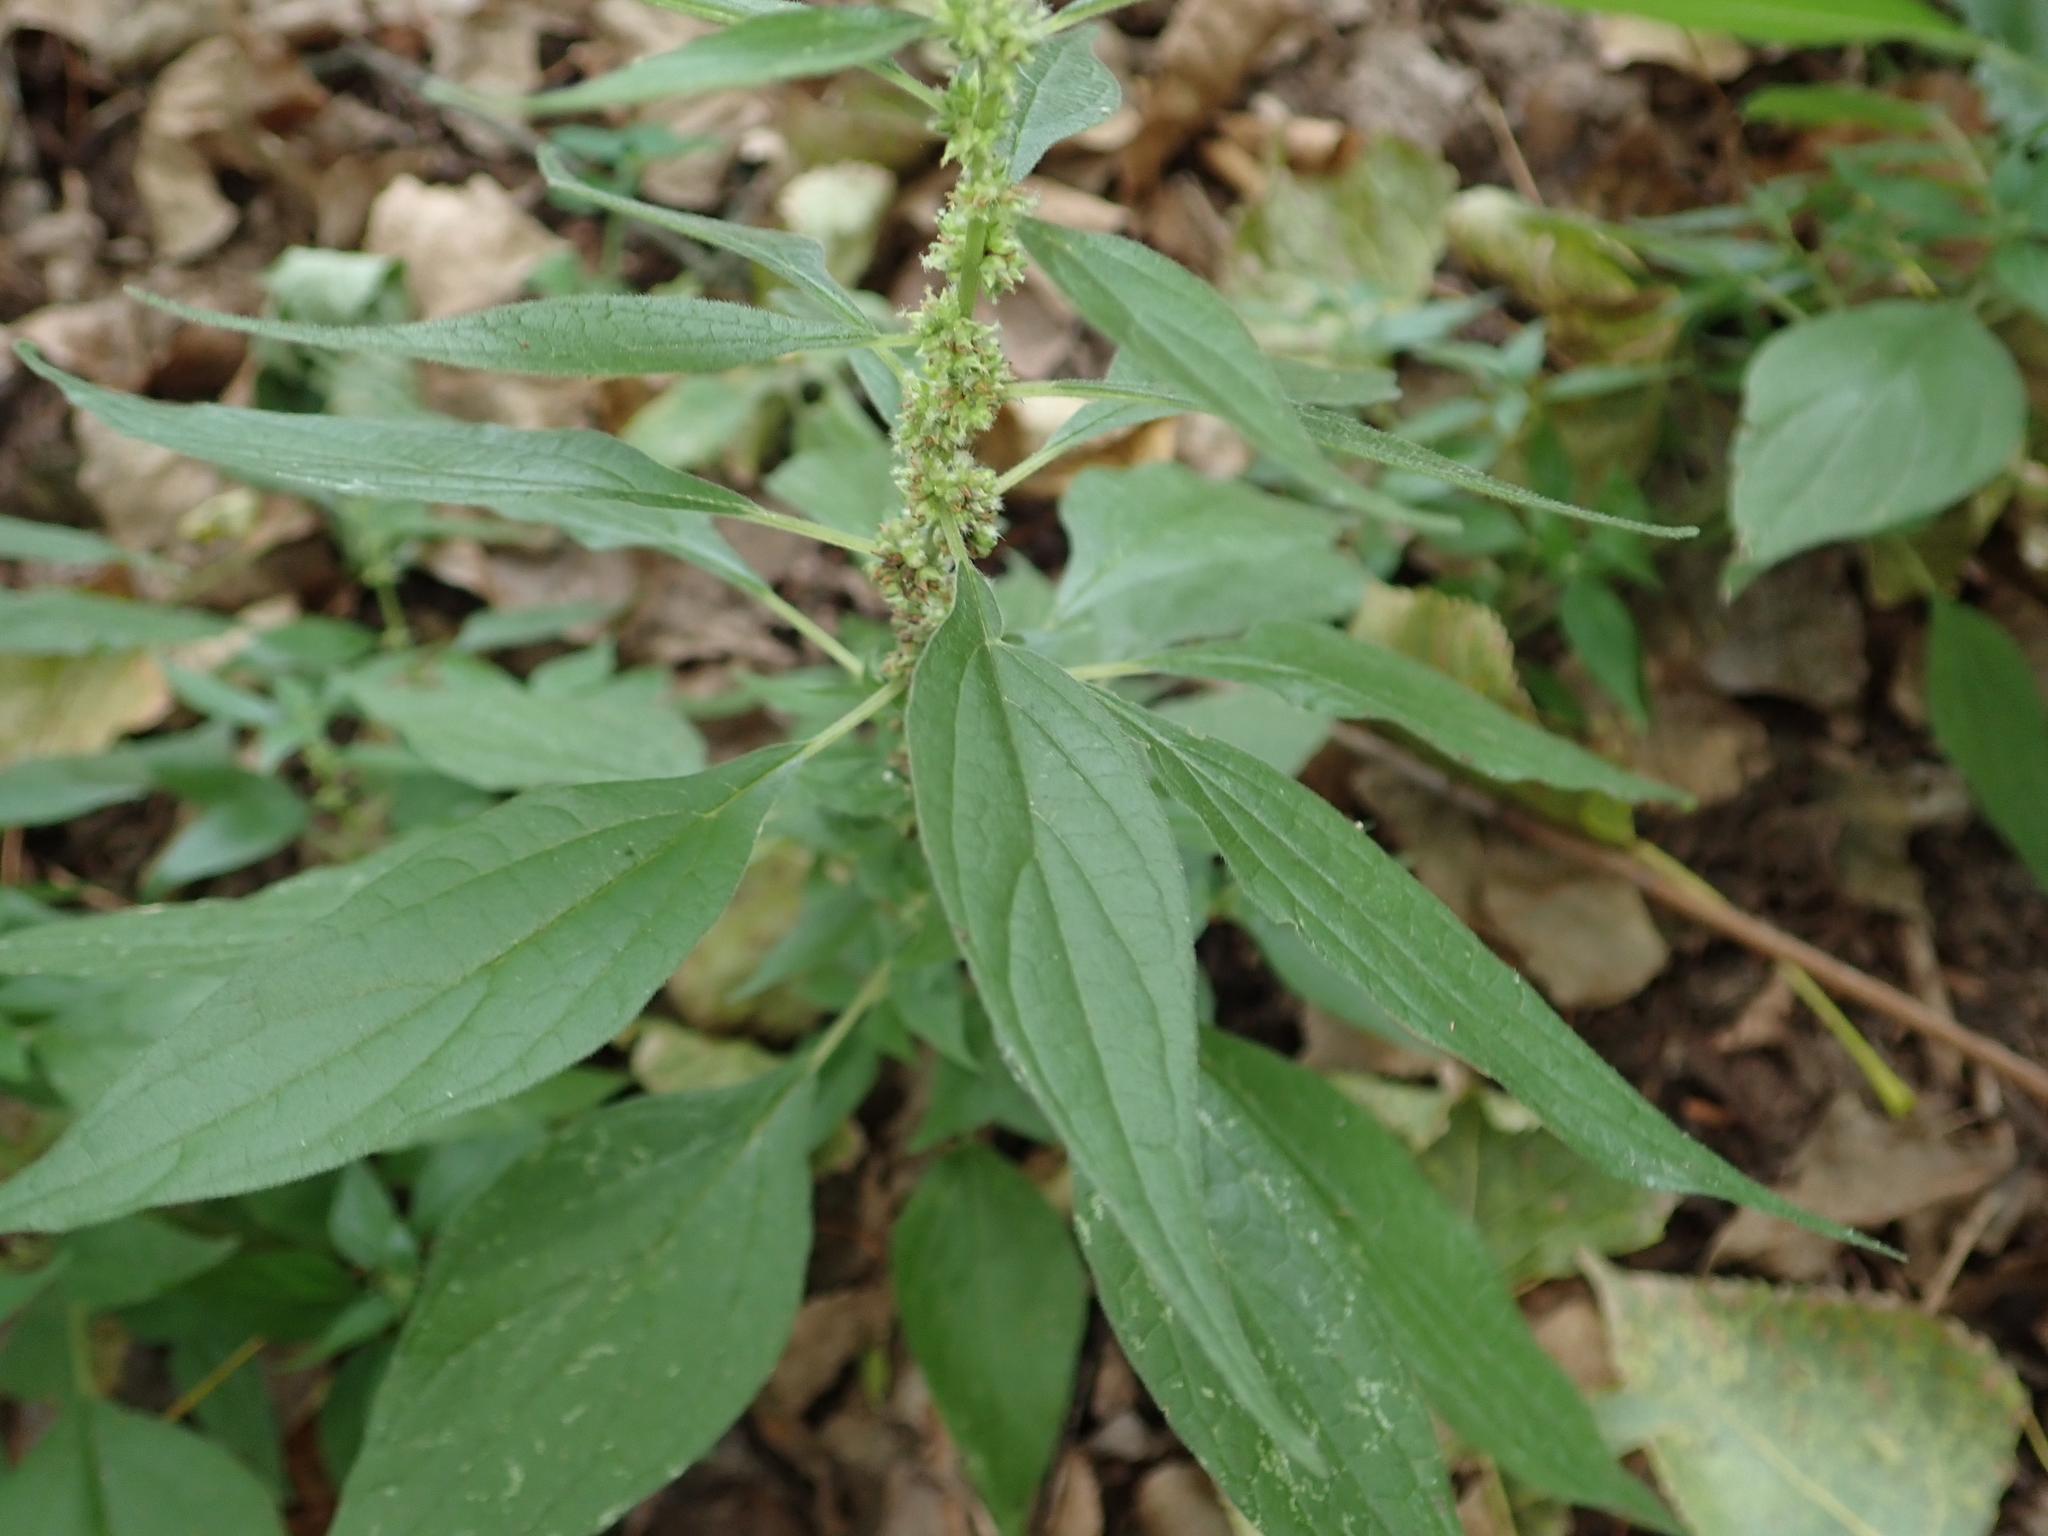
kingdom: Plantae
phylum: Tracheophyta
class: Magnoliopsida
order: Rosales
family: Urticaceae
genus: Parietaria
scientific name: Parietaria officinalis
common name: Eastern pellitory-of-the-wall
